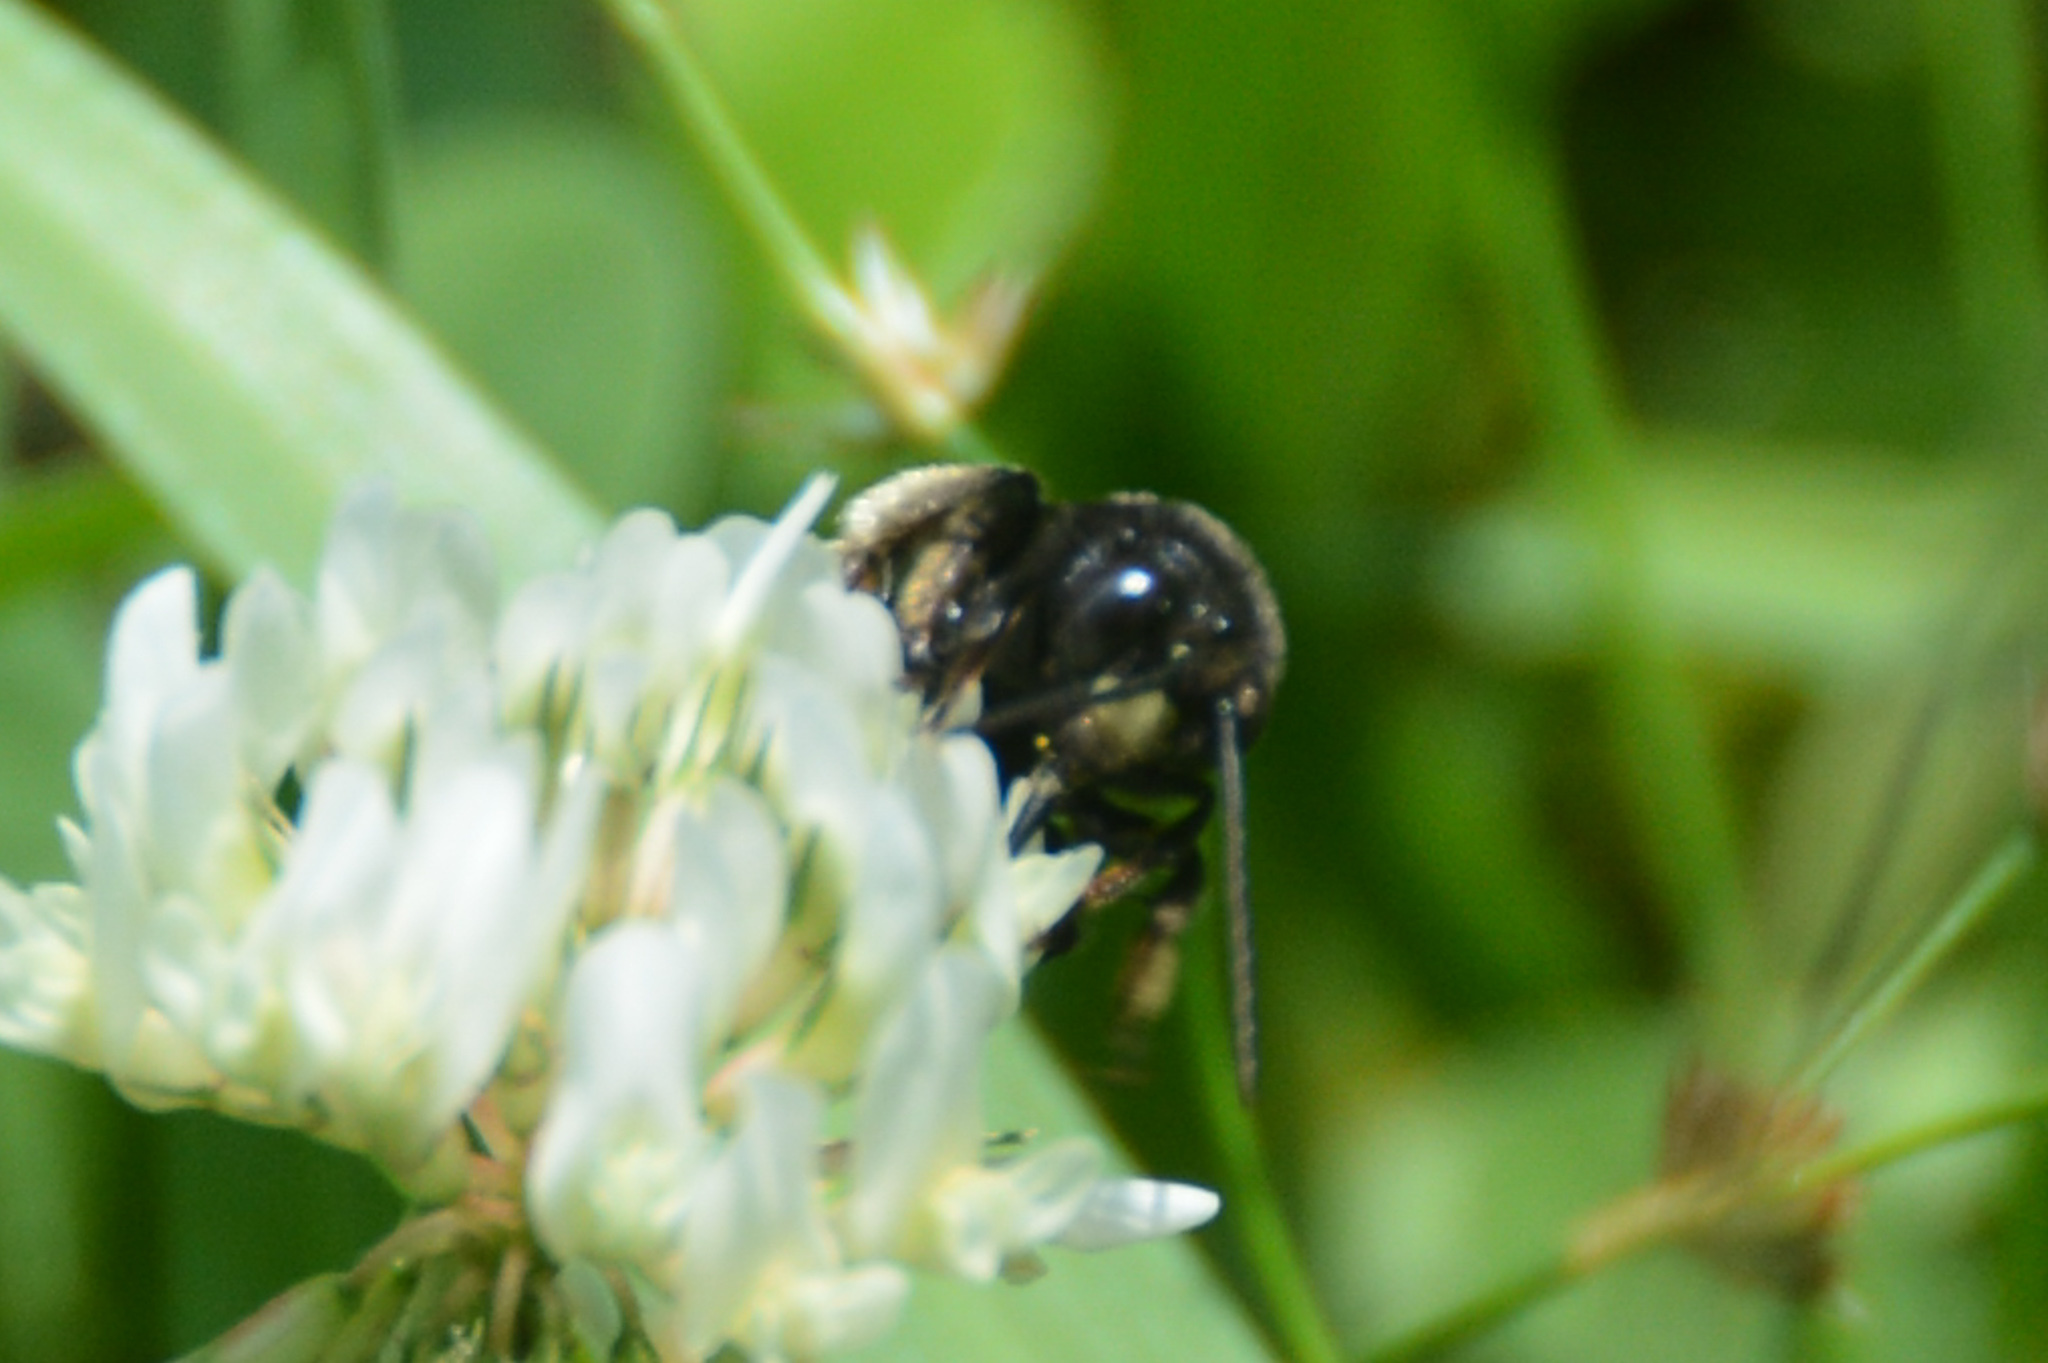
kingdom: Animalia
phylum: Arthropoda
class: Insecta
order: Hymenoptera
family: Apidae
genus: Melissodes
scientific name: Melissodes bimaculatus
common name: Two-spotted long-horned bee
